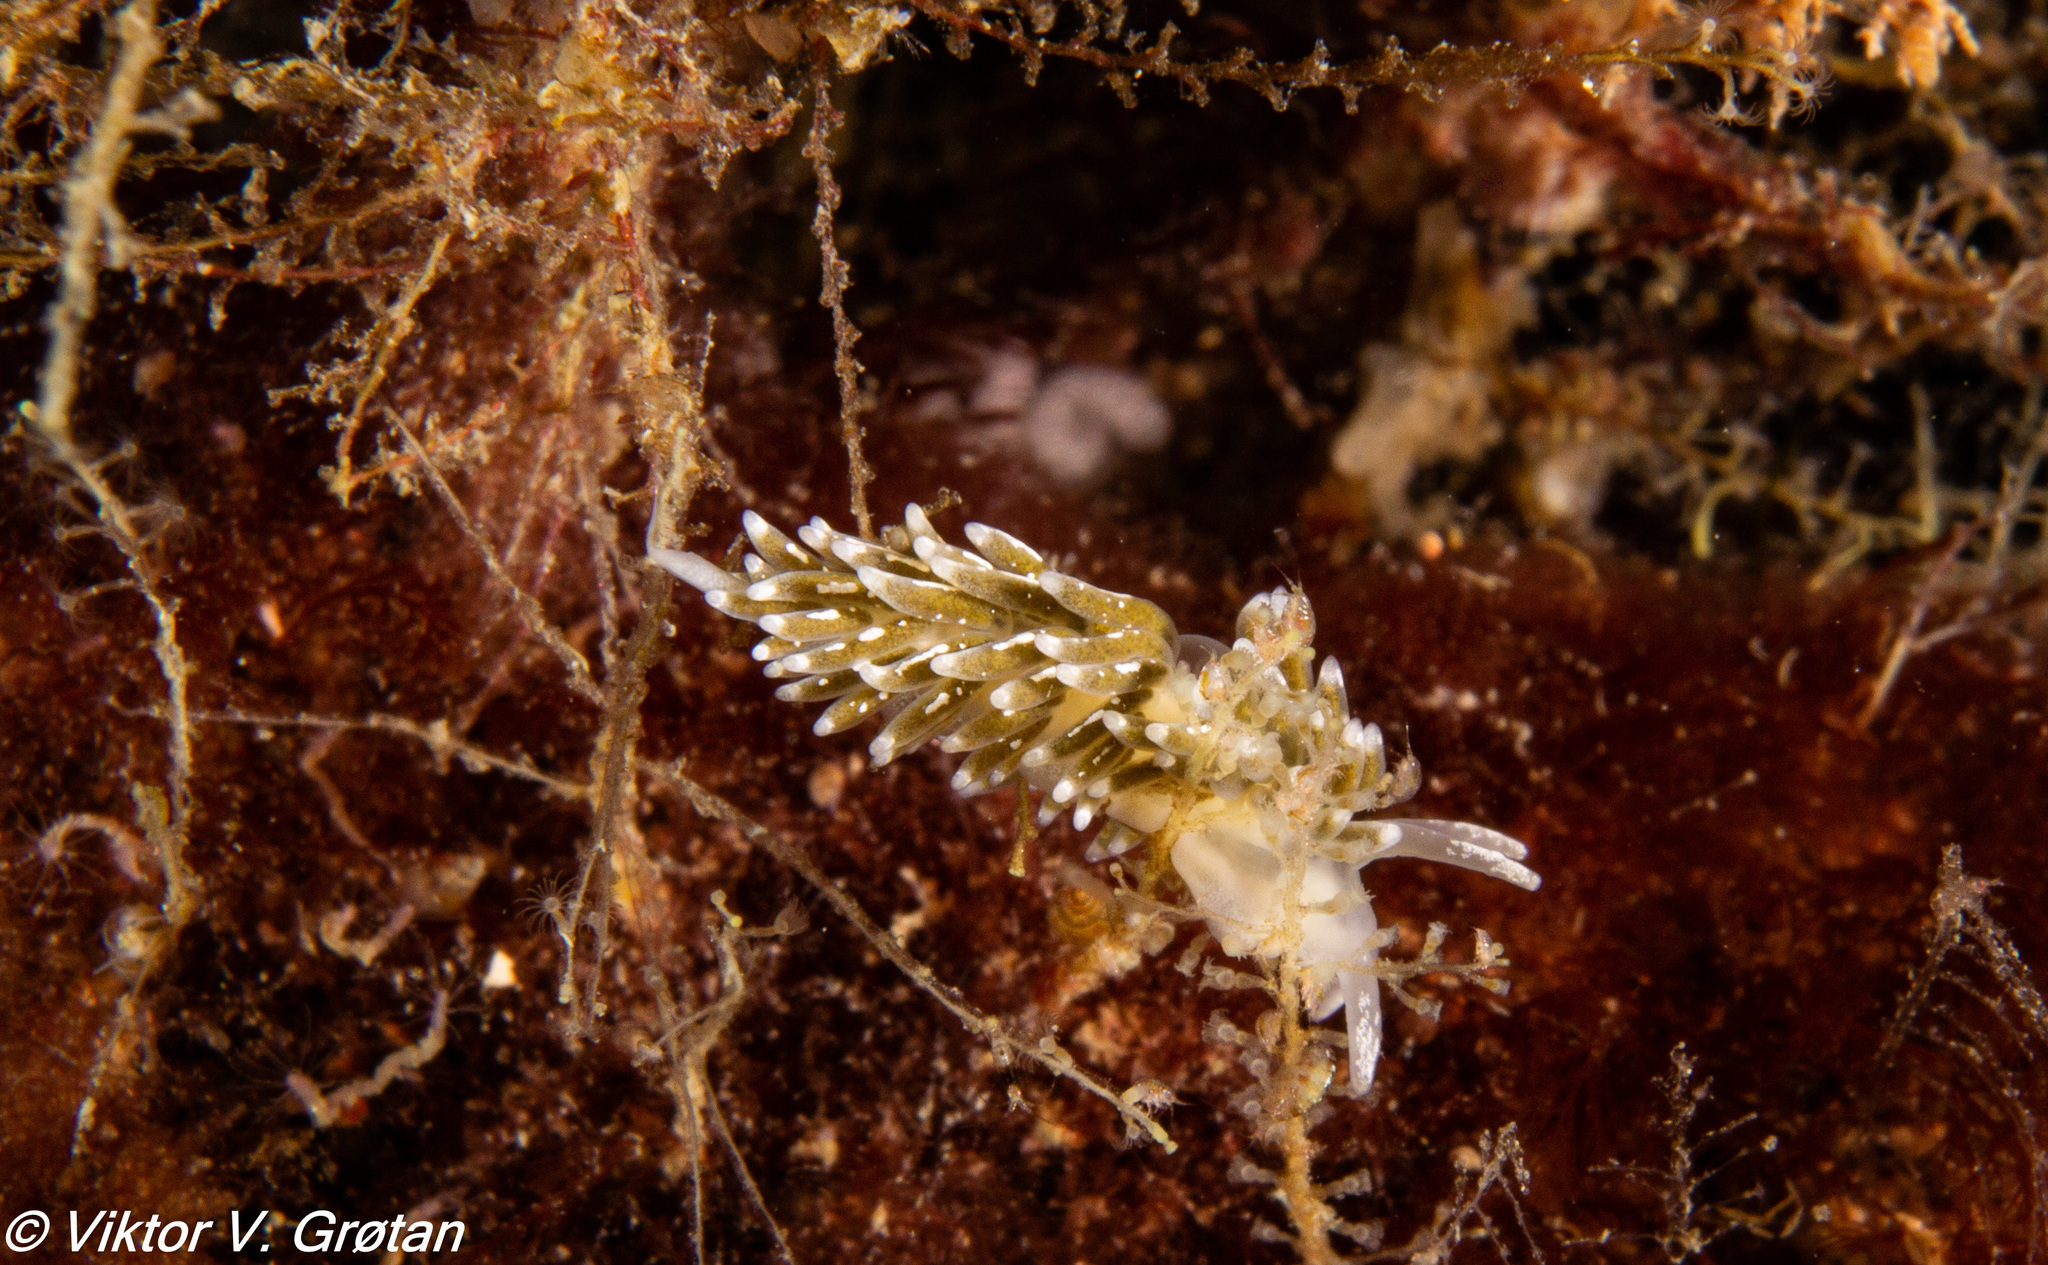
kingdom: Animalia
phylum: Mollusca
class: Gastropoda
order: Nudibranchia
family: Trinchesiidae
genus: Diaphoreolis
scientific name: Diaphoreolis viridis
